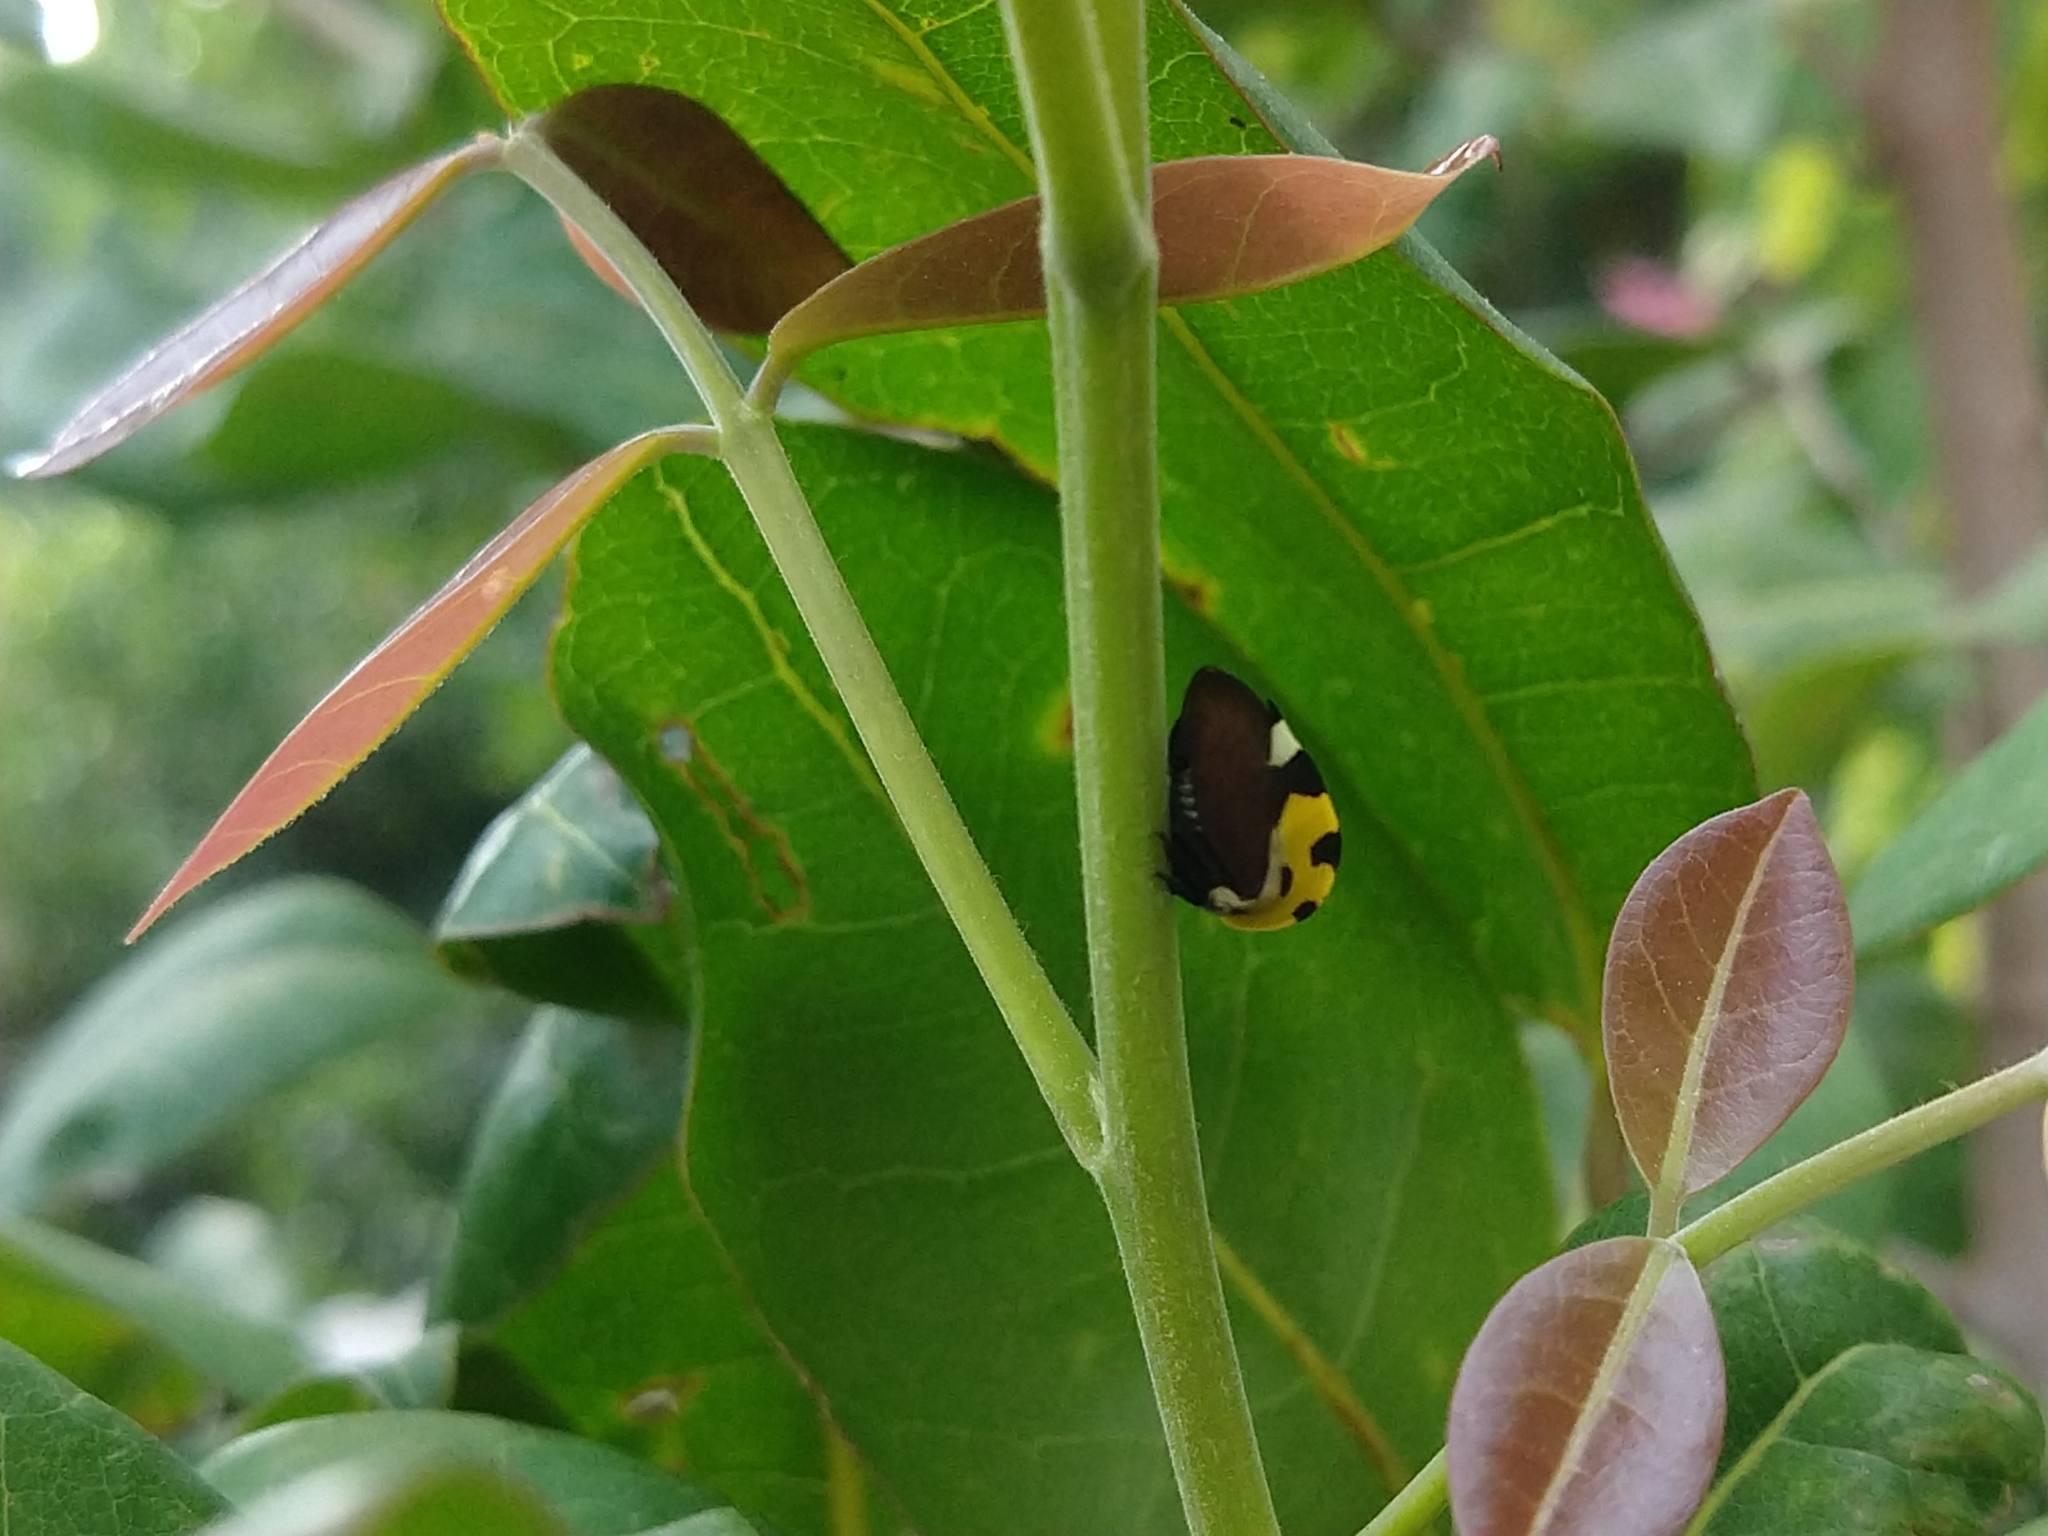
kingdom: Animalia
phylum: Arthropoda
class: Insecta
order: Hemiptera
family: Membracidae
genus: Membracis
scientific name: Membracis mexicana
